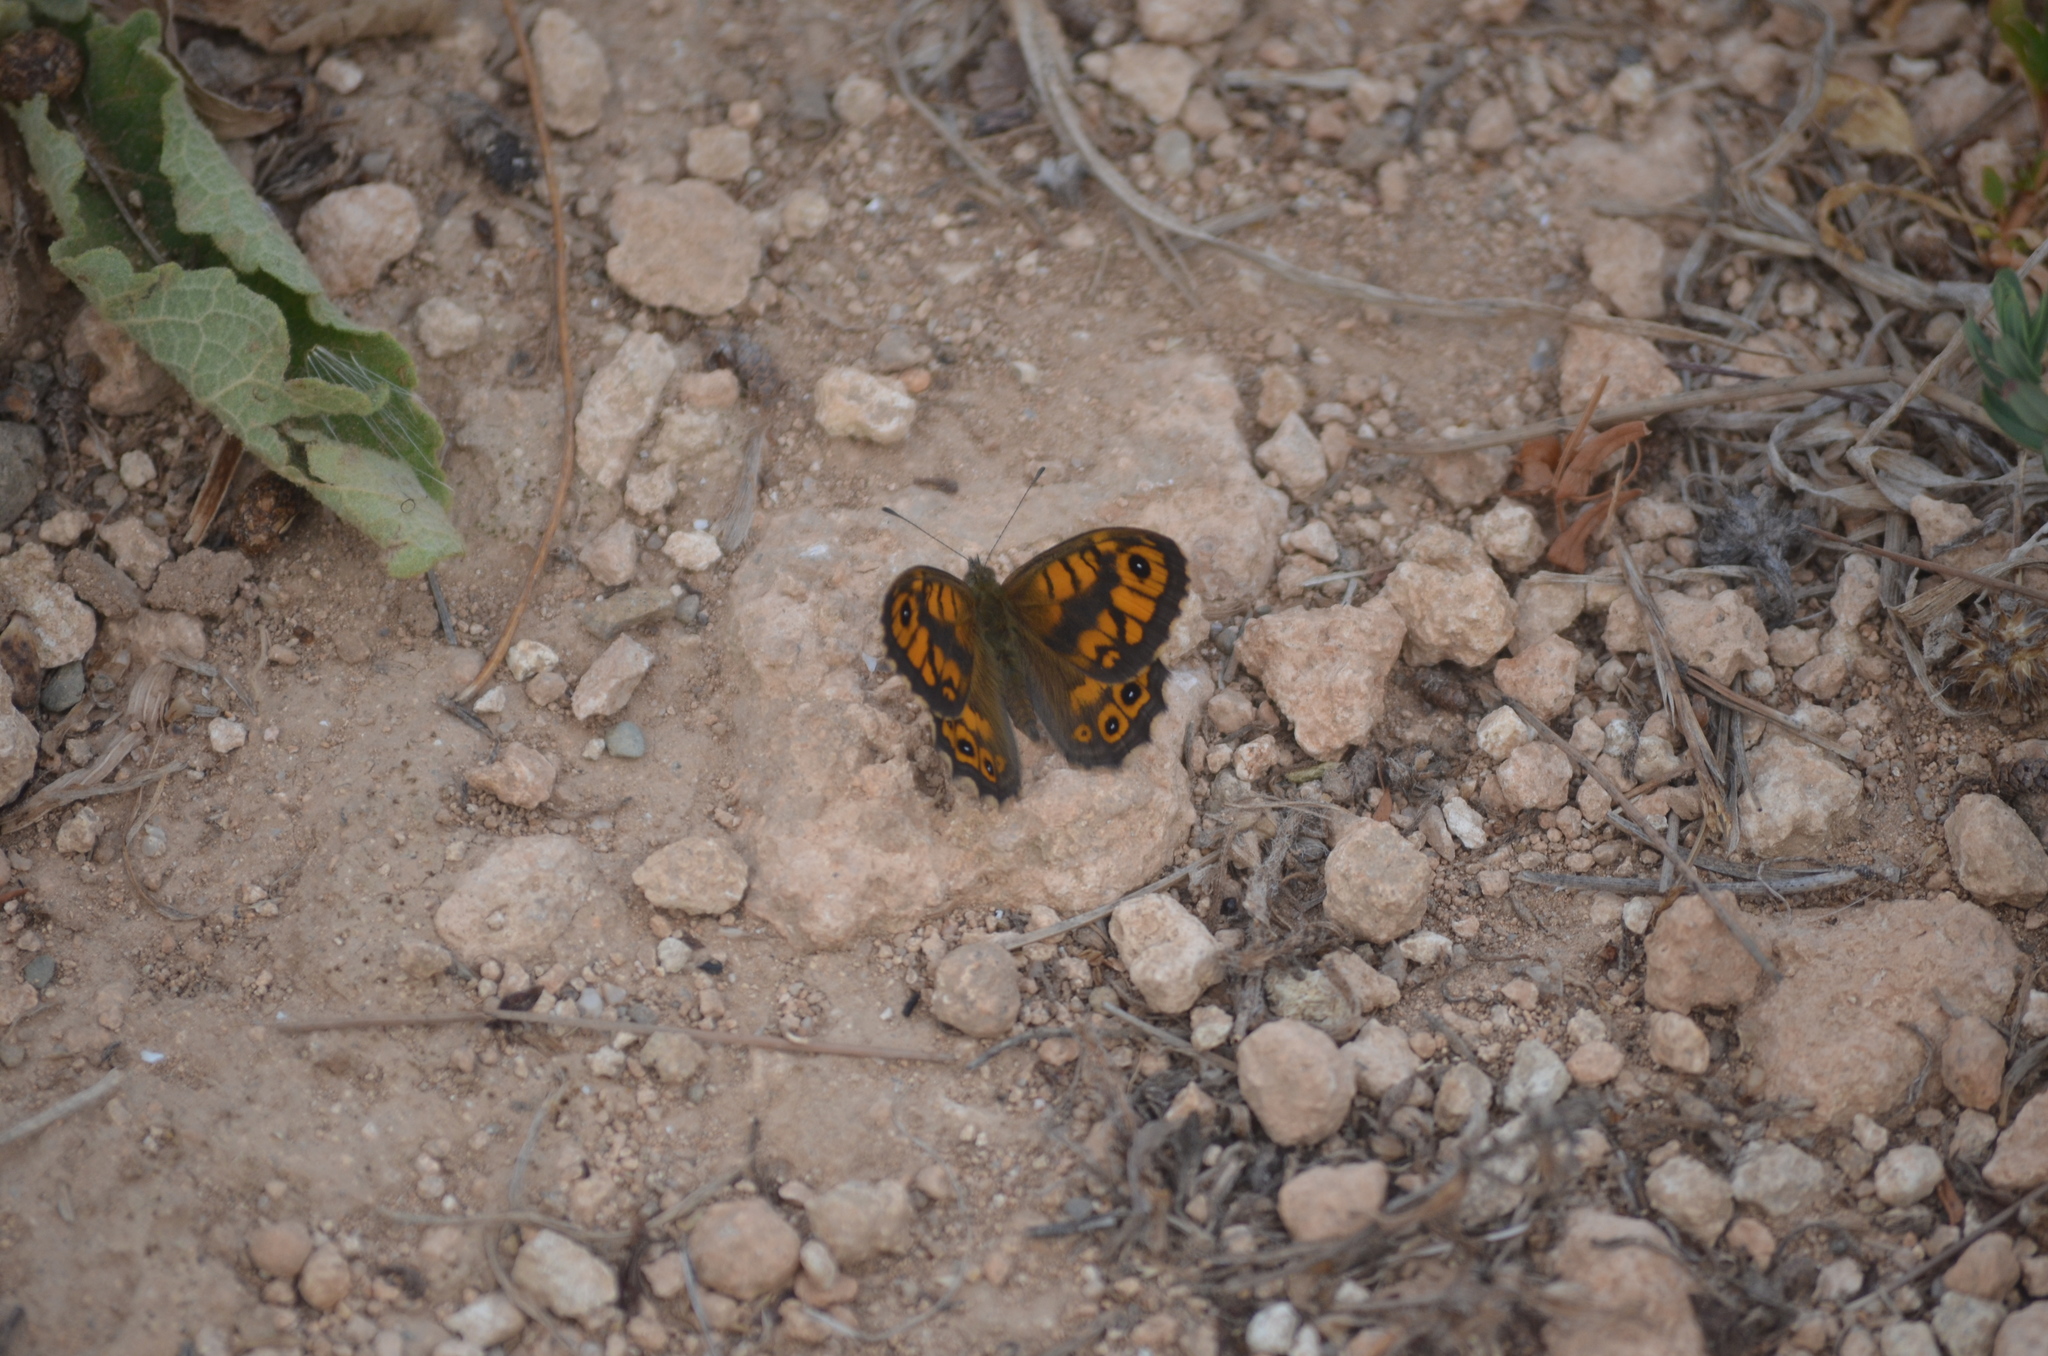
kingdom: Animalia
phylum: Arthropoda
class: Insecta
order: Lepidoptera
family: Nymphalidae
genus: Pararge
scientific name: Pararge Lasiommata megera
